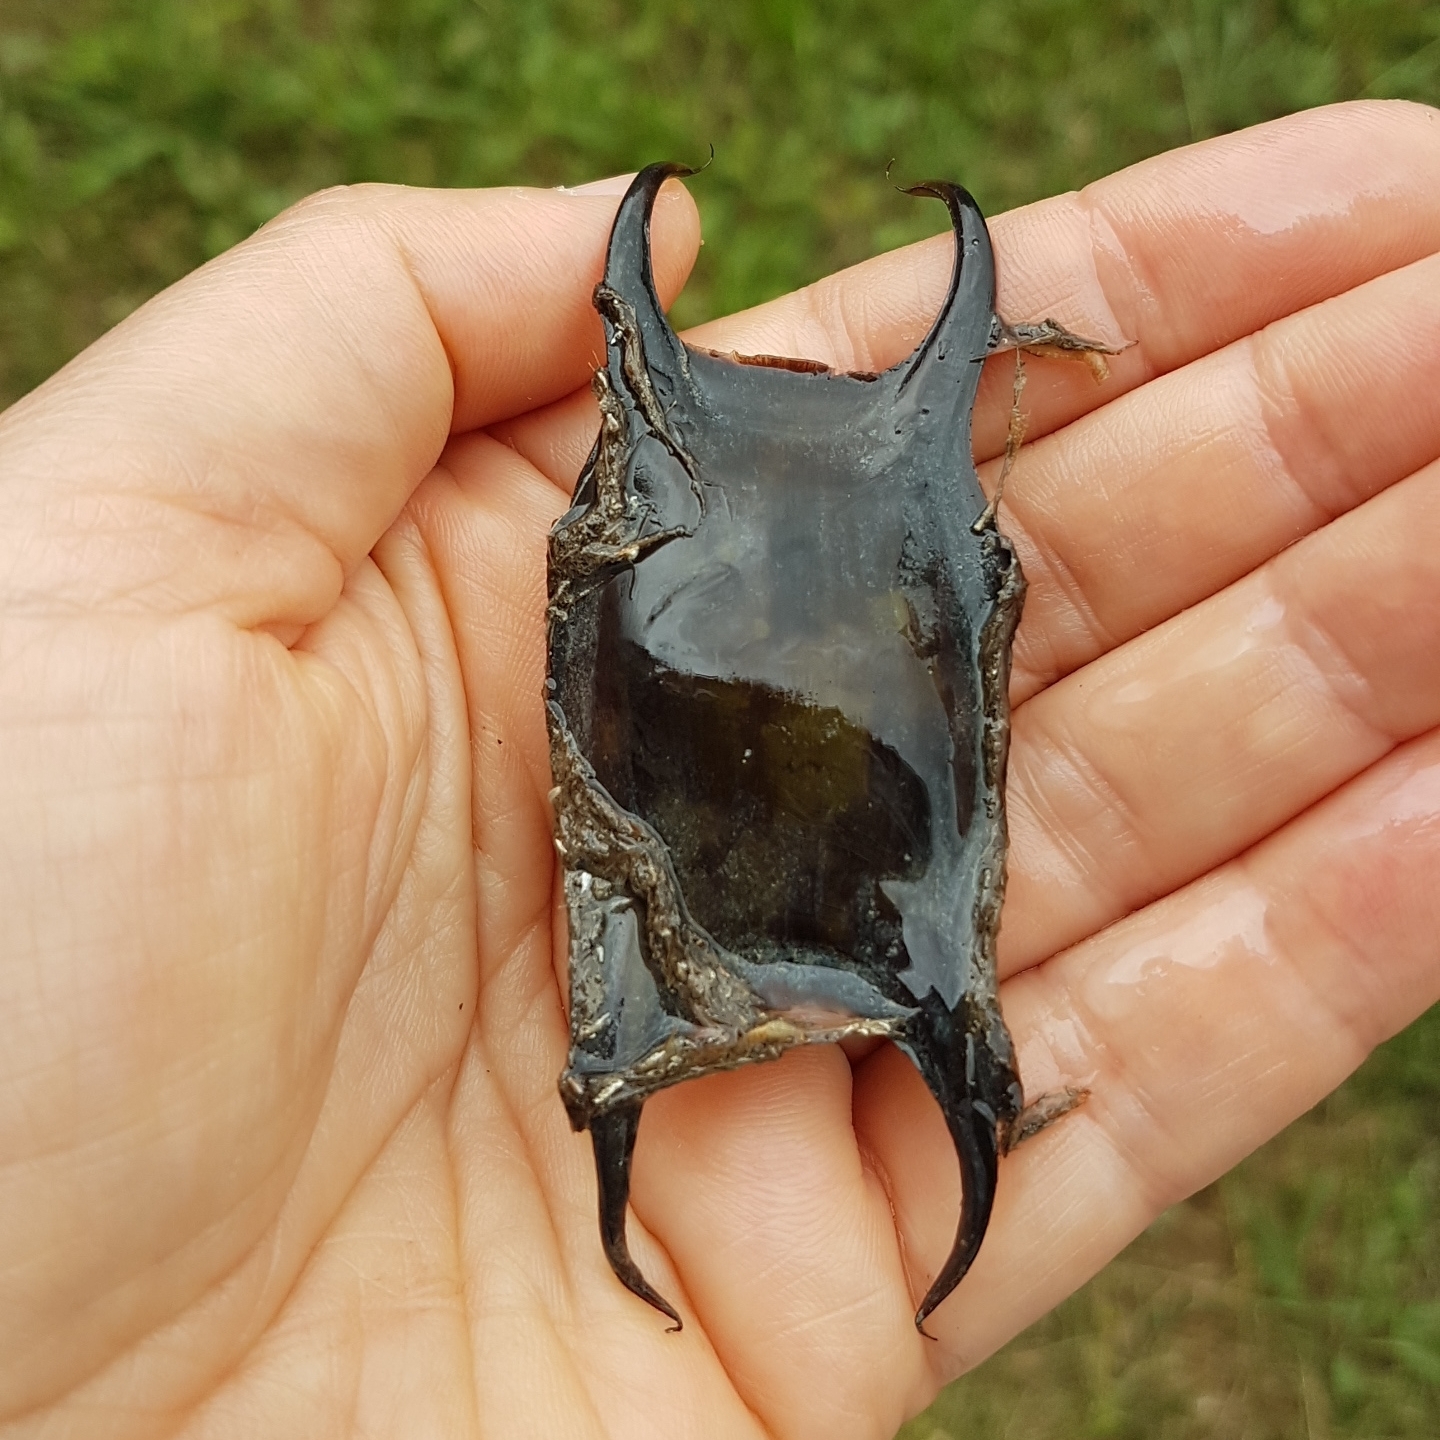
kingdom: Animalia
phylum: Chordata
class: Elasmobranchii
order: Rajiformes
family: Rajidae
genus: Raja
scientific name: Raja clavata
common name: Thornback ray
